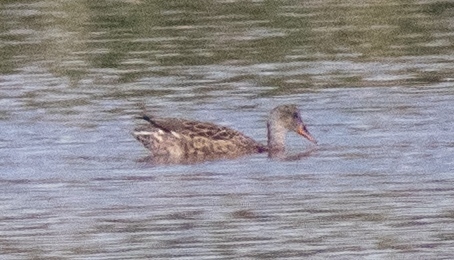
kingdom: Animalia
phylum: Chordata
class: Aves
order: Anseriformes
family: Anatidae
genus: Mareca
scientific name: Mareca strepera
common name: Gadwall
